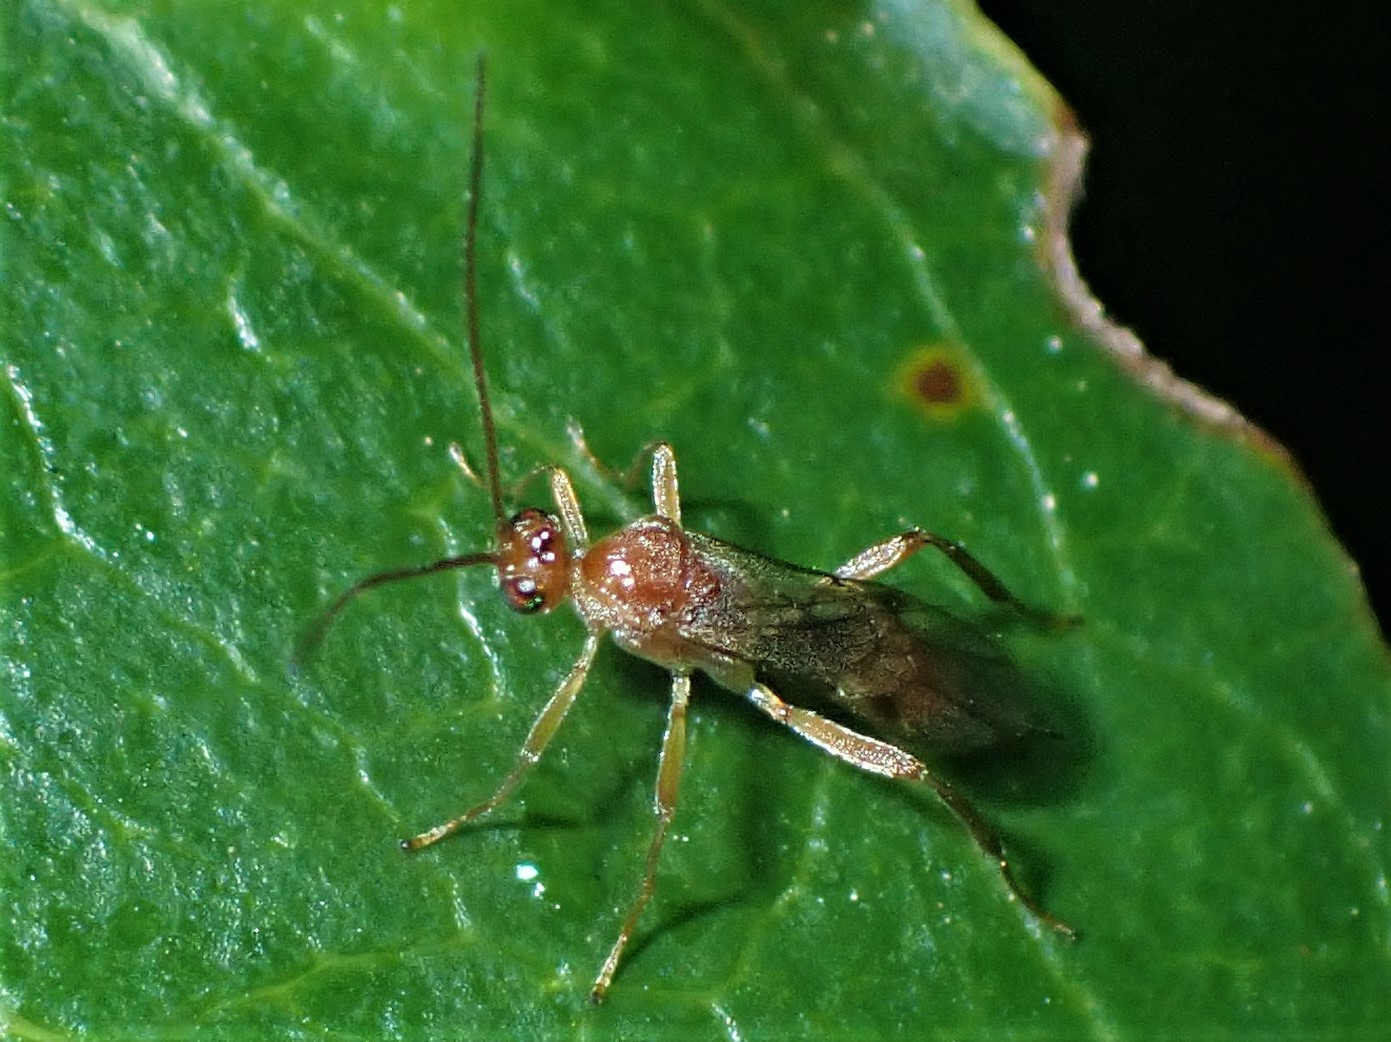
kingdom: Animalia
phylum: Arthropoda
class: Insecta
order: Hymenoptera
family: Braconidae
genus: Meteorus
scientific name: Meteorus pulchricornis
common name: Braconid wasp
